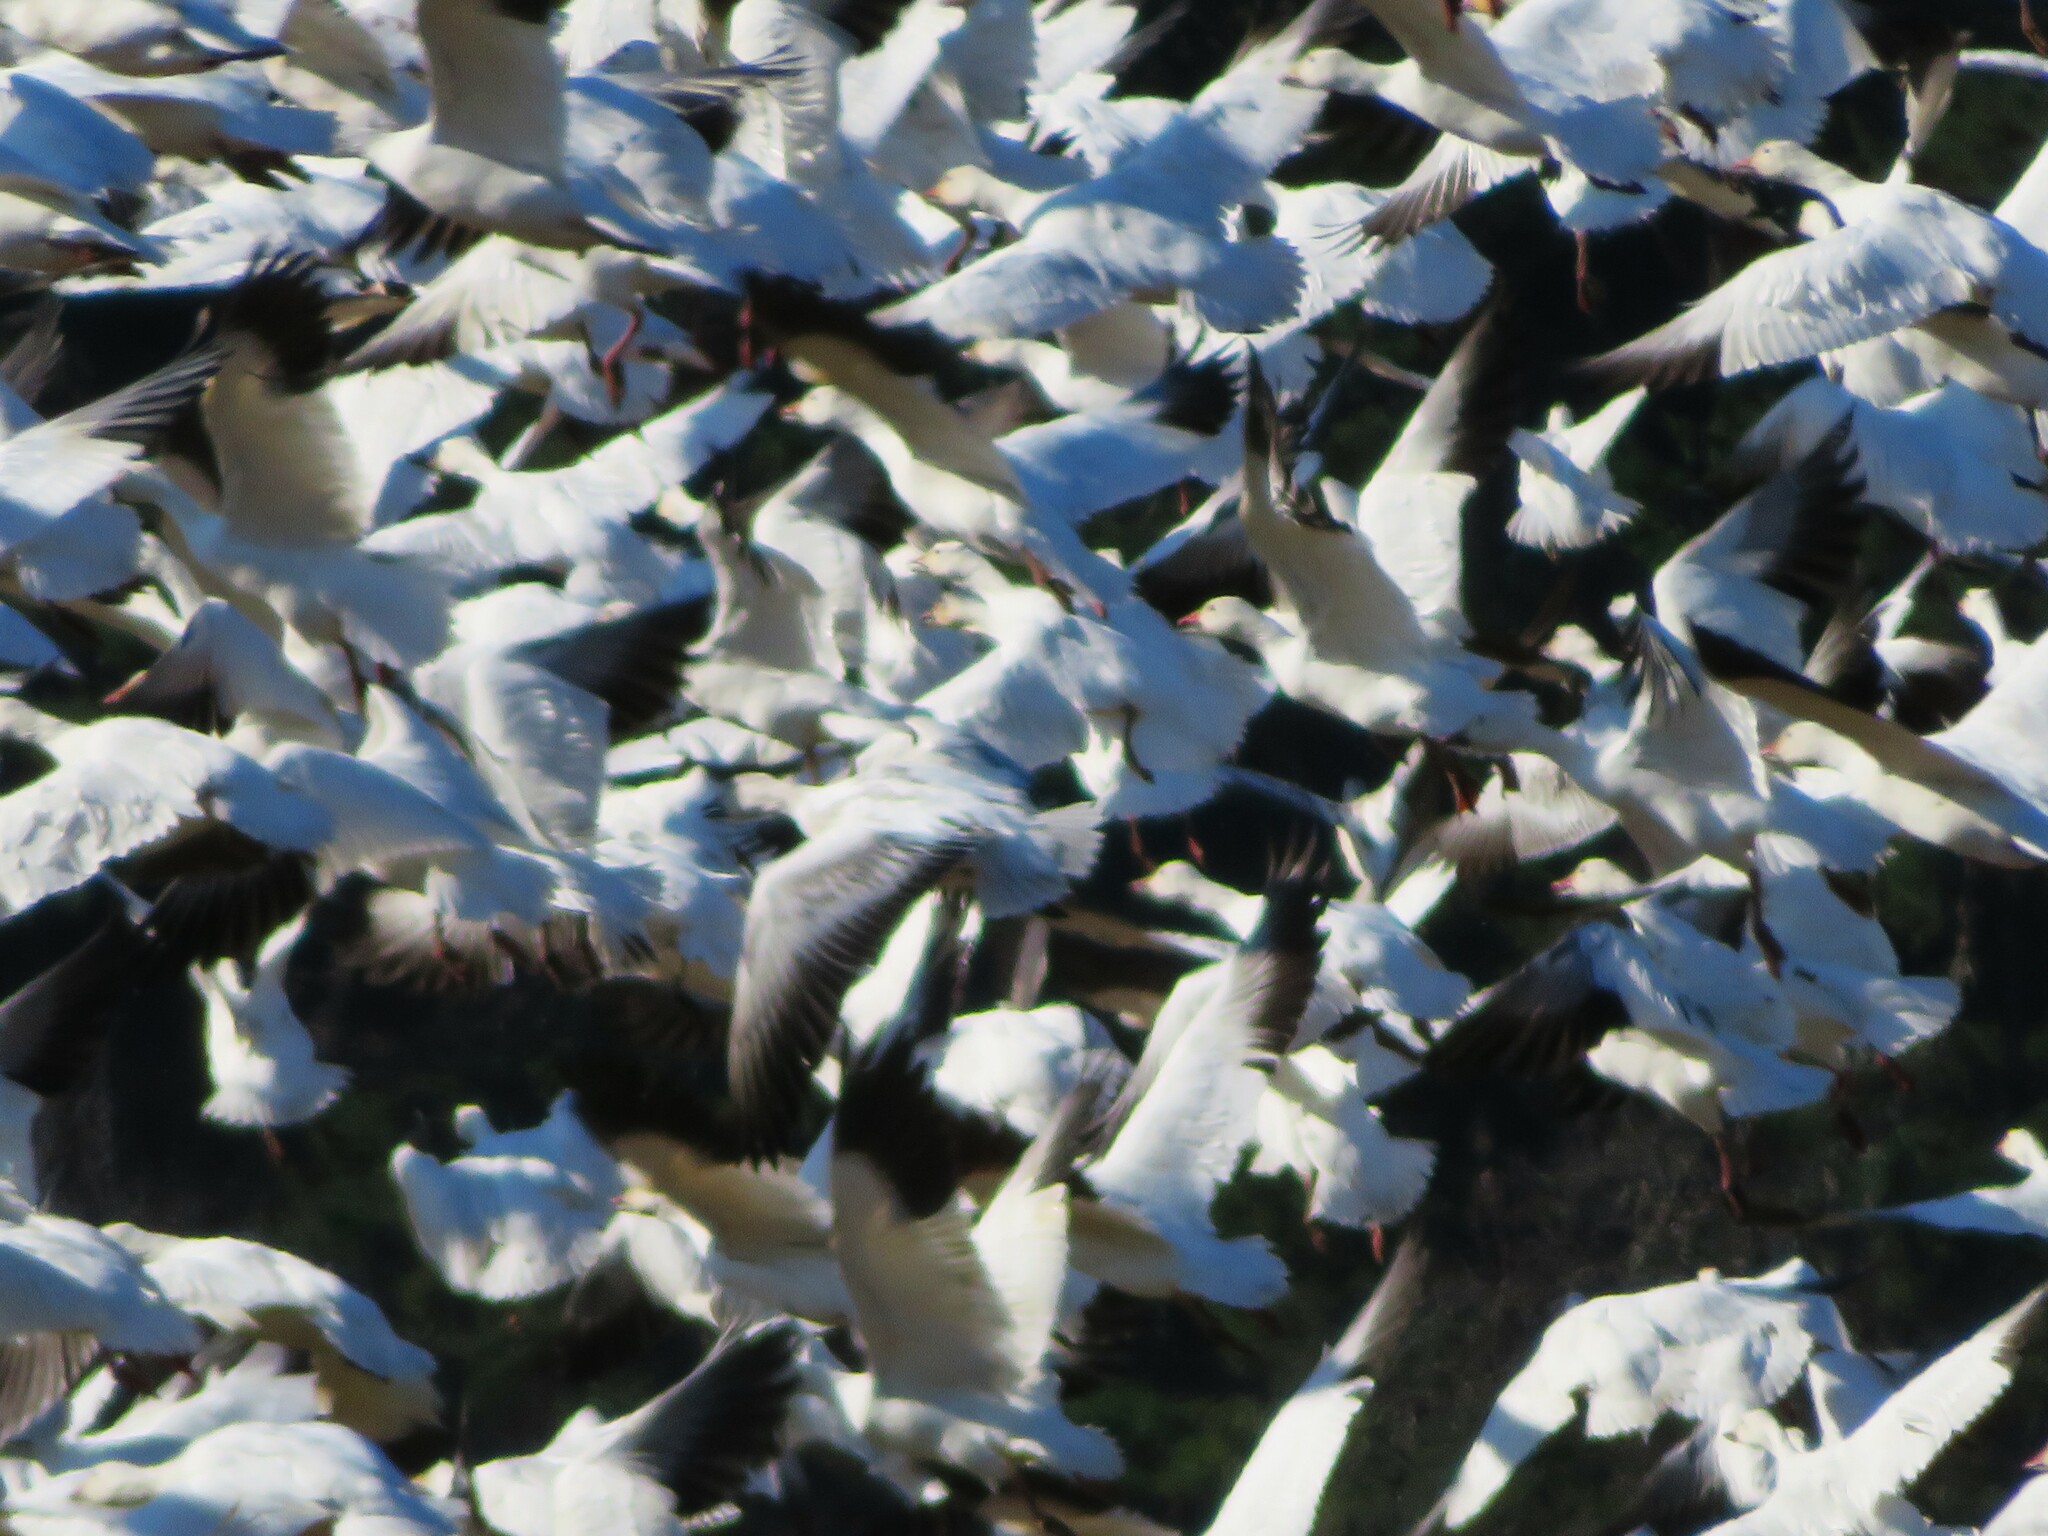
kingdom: Animalia
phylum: Chordata
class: Aves
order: Anseriformes
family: Anatidae
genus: Anser
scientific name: Anser caerulescens
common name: Snow goose
